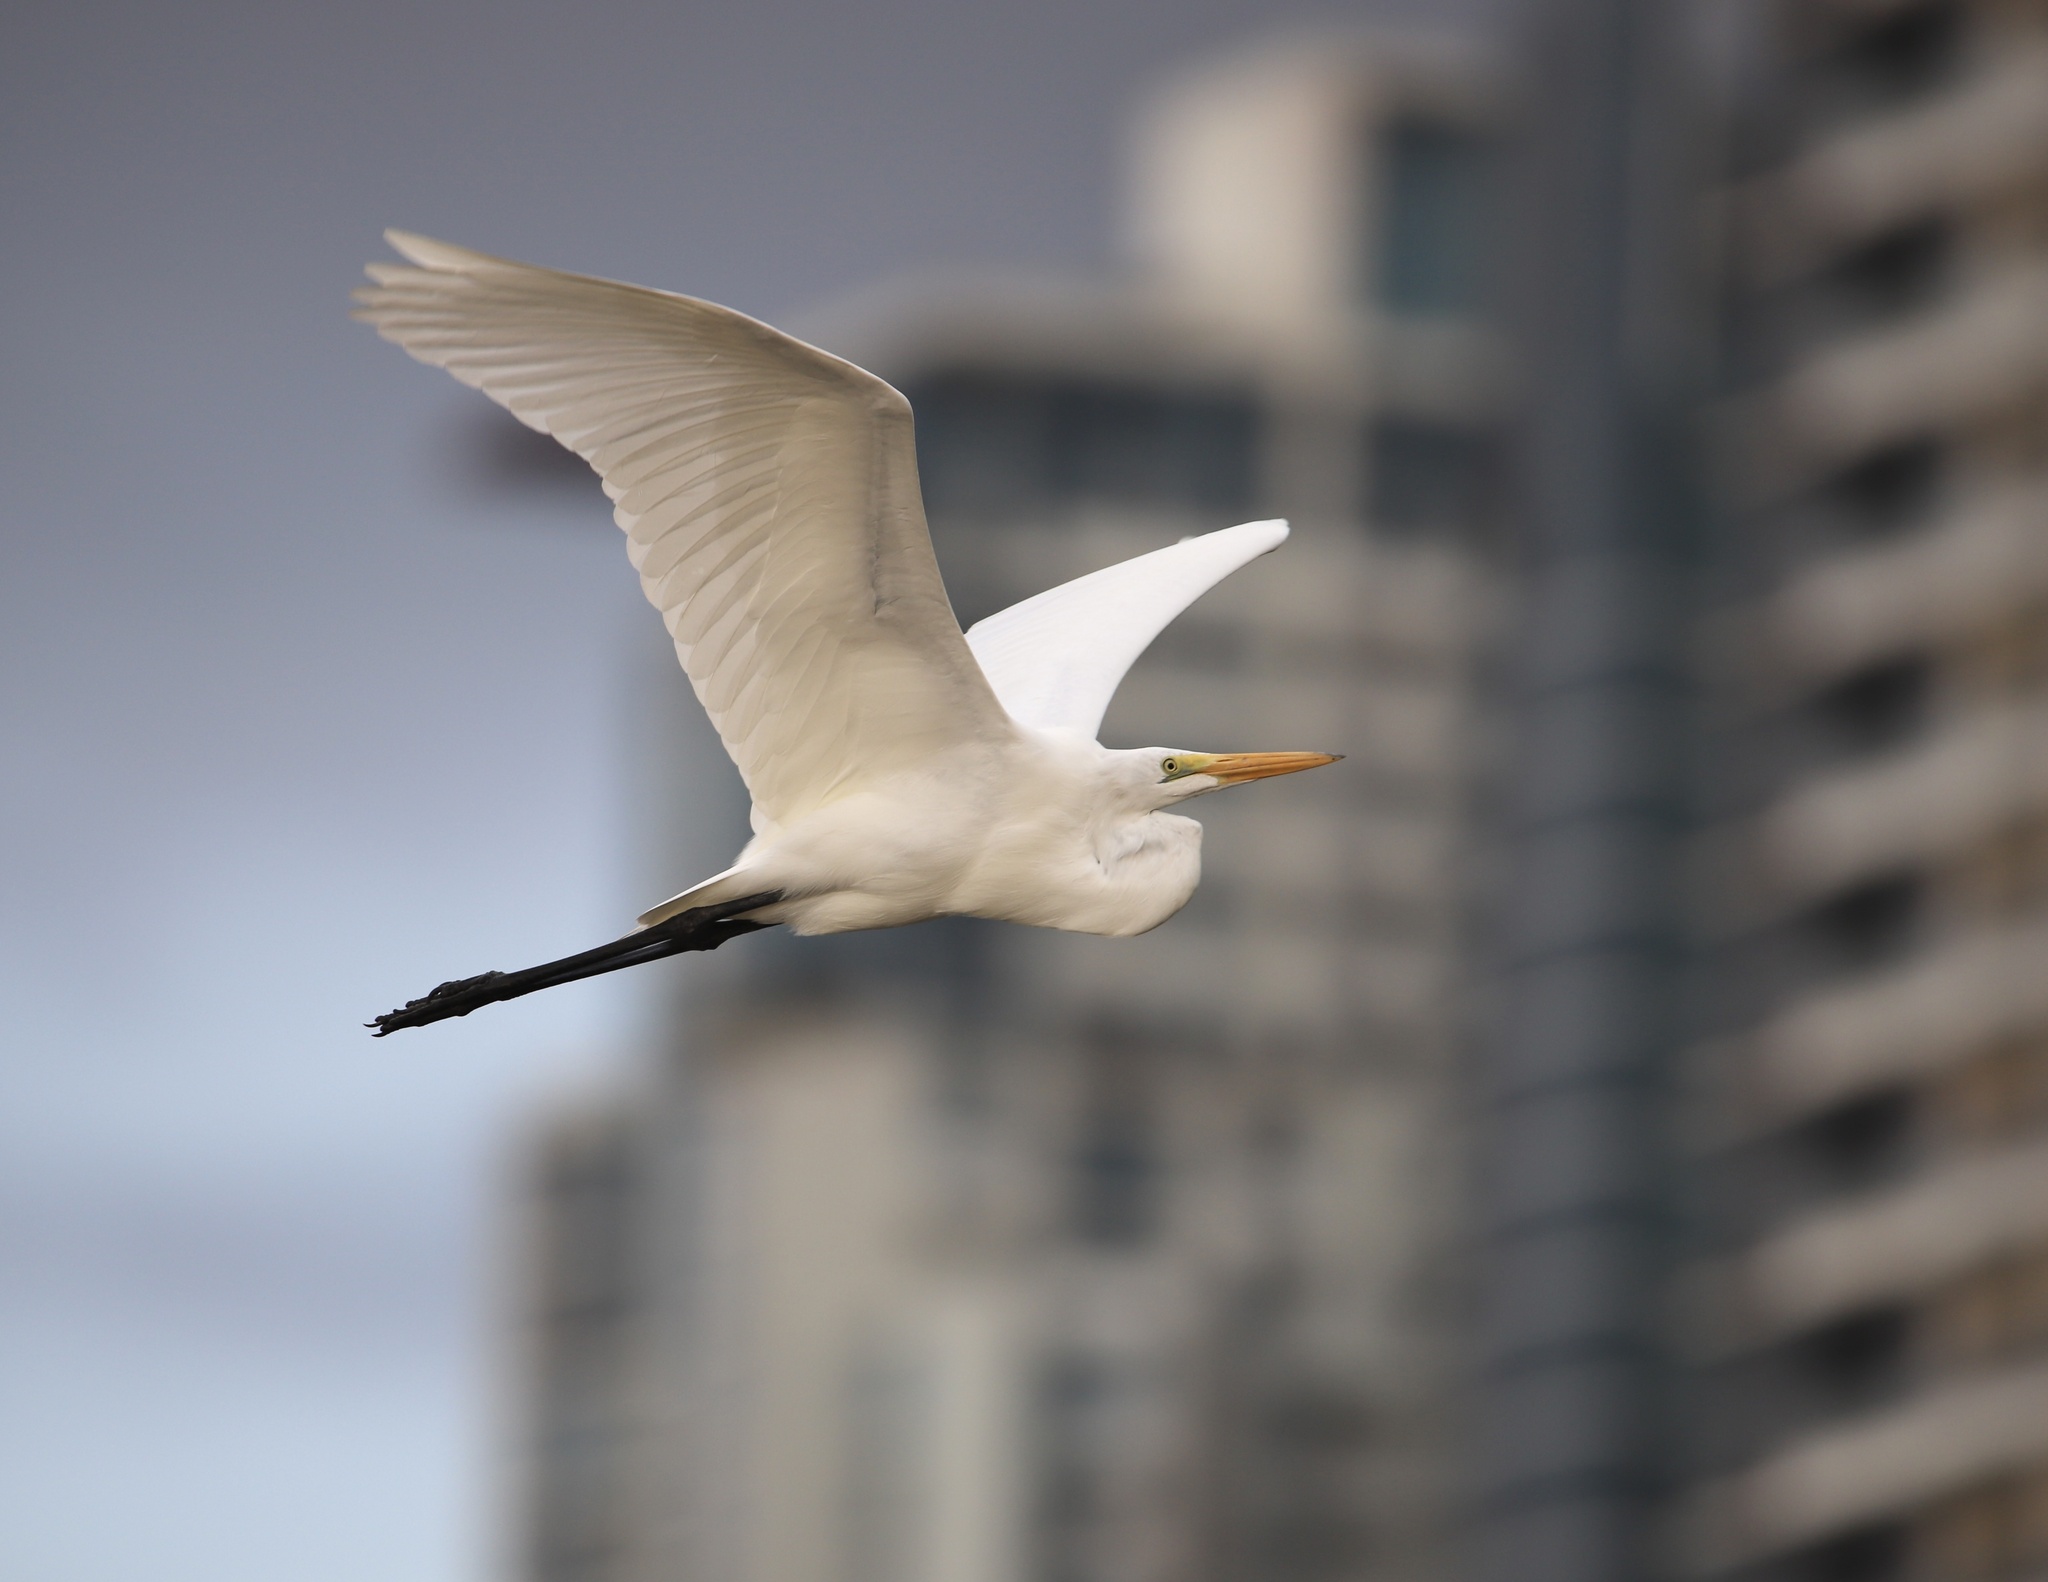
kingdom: Animalia
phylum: Chordata
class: Aves
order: Pelecaniformes
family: Ardeidae
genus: Ardea
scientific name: Ardea alba
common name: Great egret
